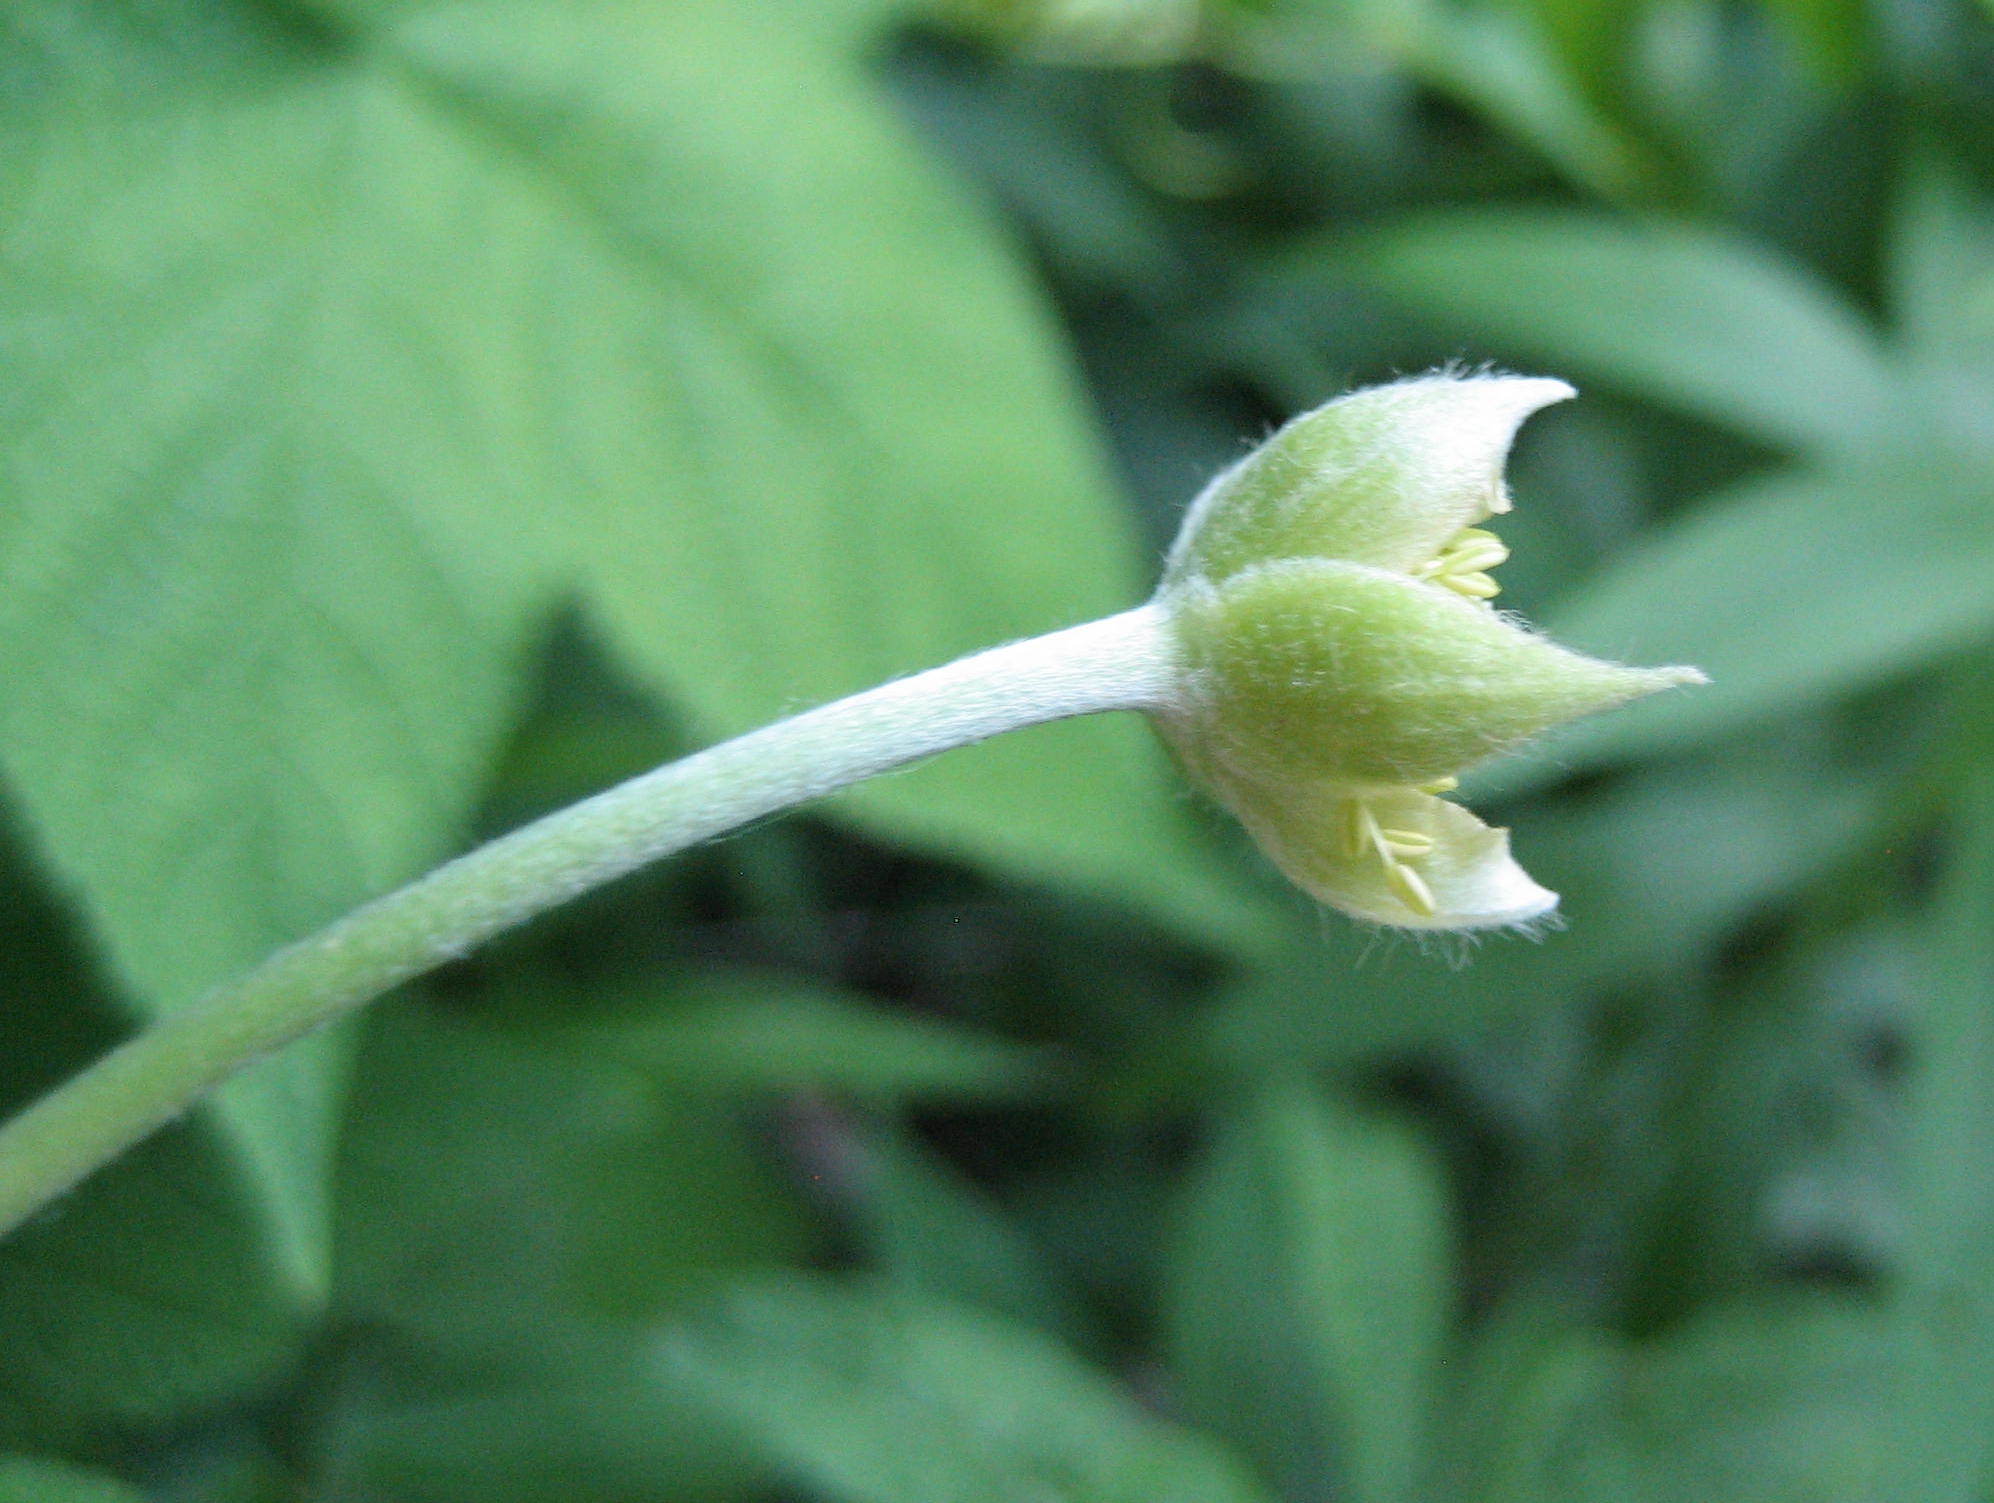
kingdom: Plantae
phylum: Tracheophyta
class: Magnoliopsida
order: Ranunculales
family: Ranunculaceae
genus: Anemone
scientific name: Anemone virginiana
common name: Tall anemone
